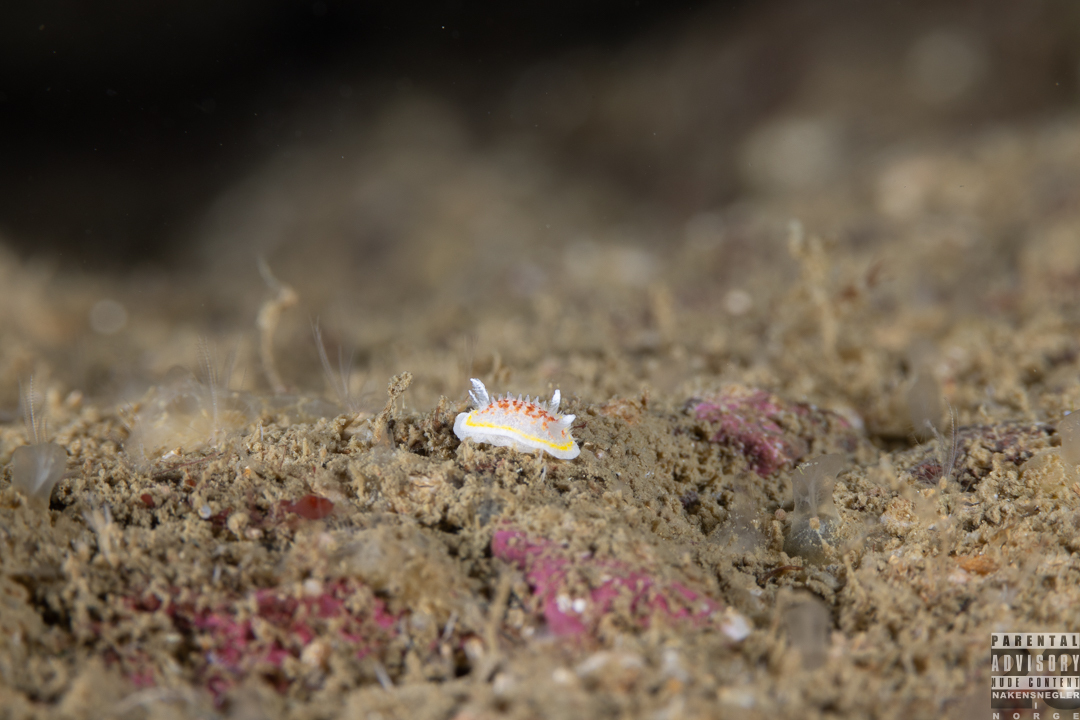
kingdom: Animalia
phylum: Mollusca
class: Gastropoda
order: Nudibranchia
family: Calycidorididae
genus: Diaphorodoris
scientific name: Diaphorodoris luteocincta
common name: Fried egg nudibranch
